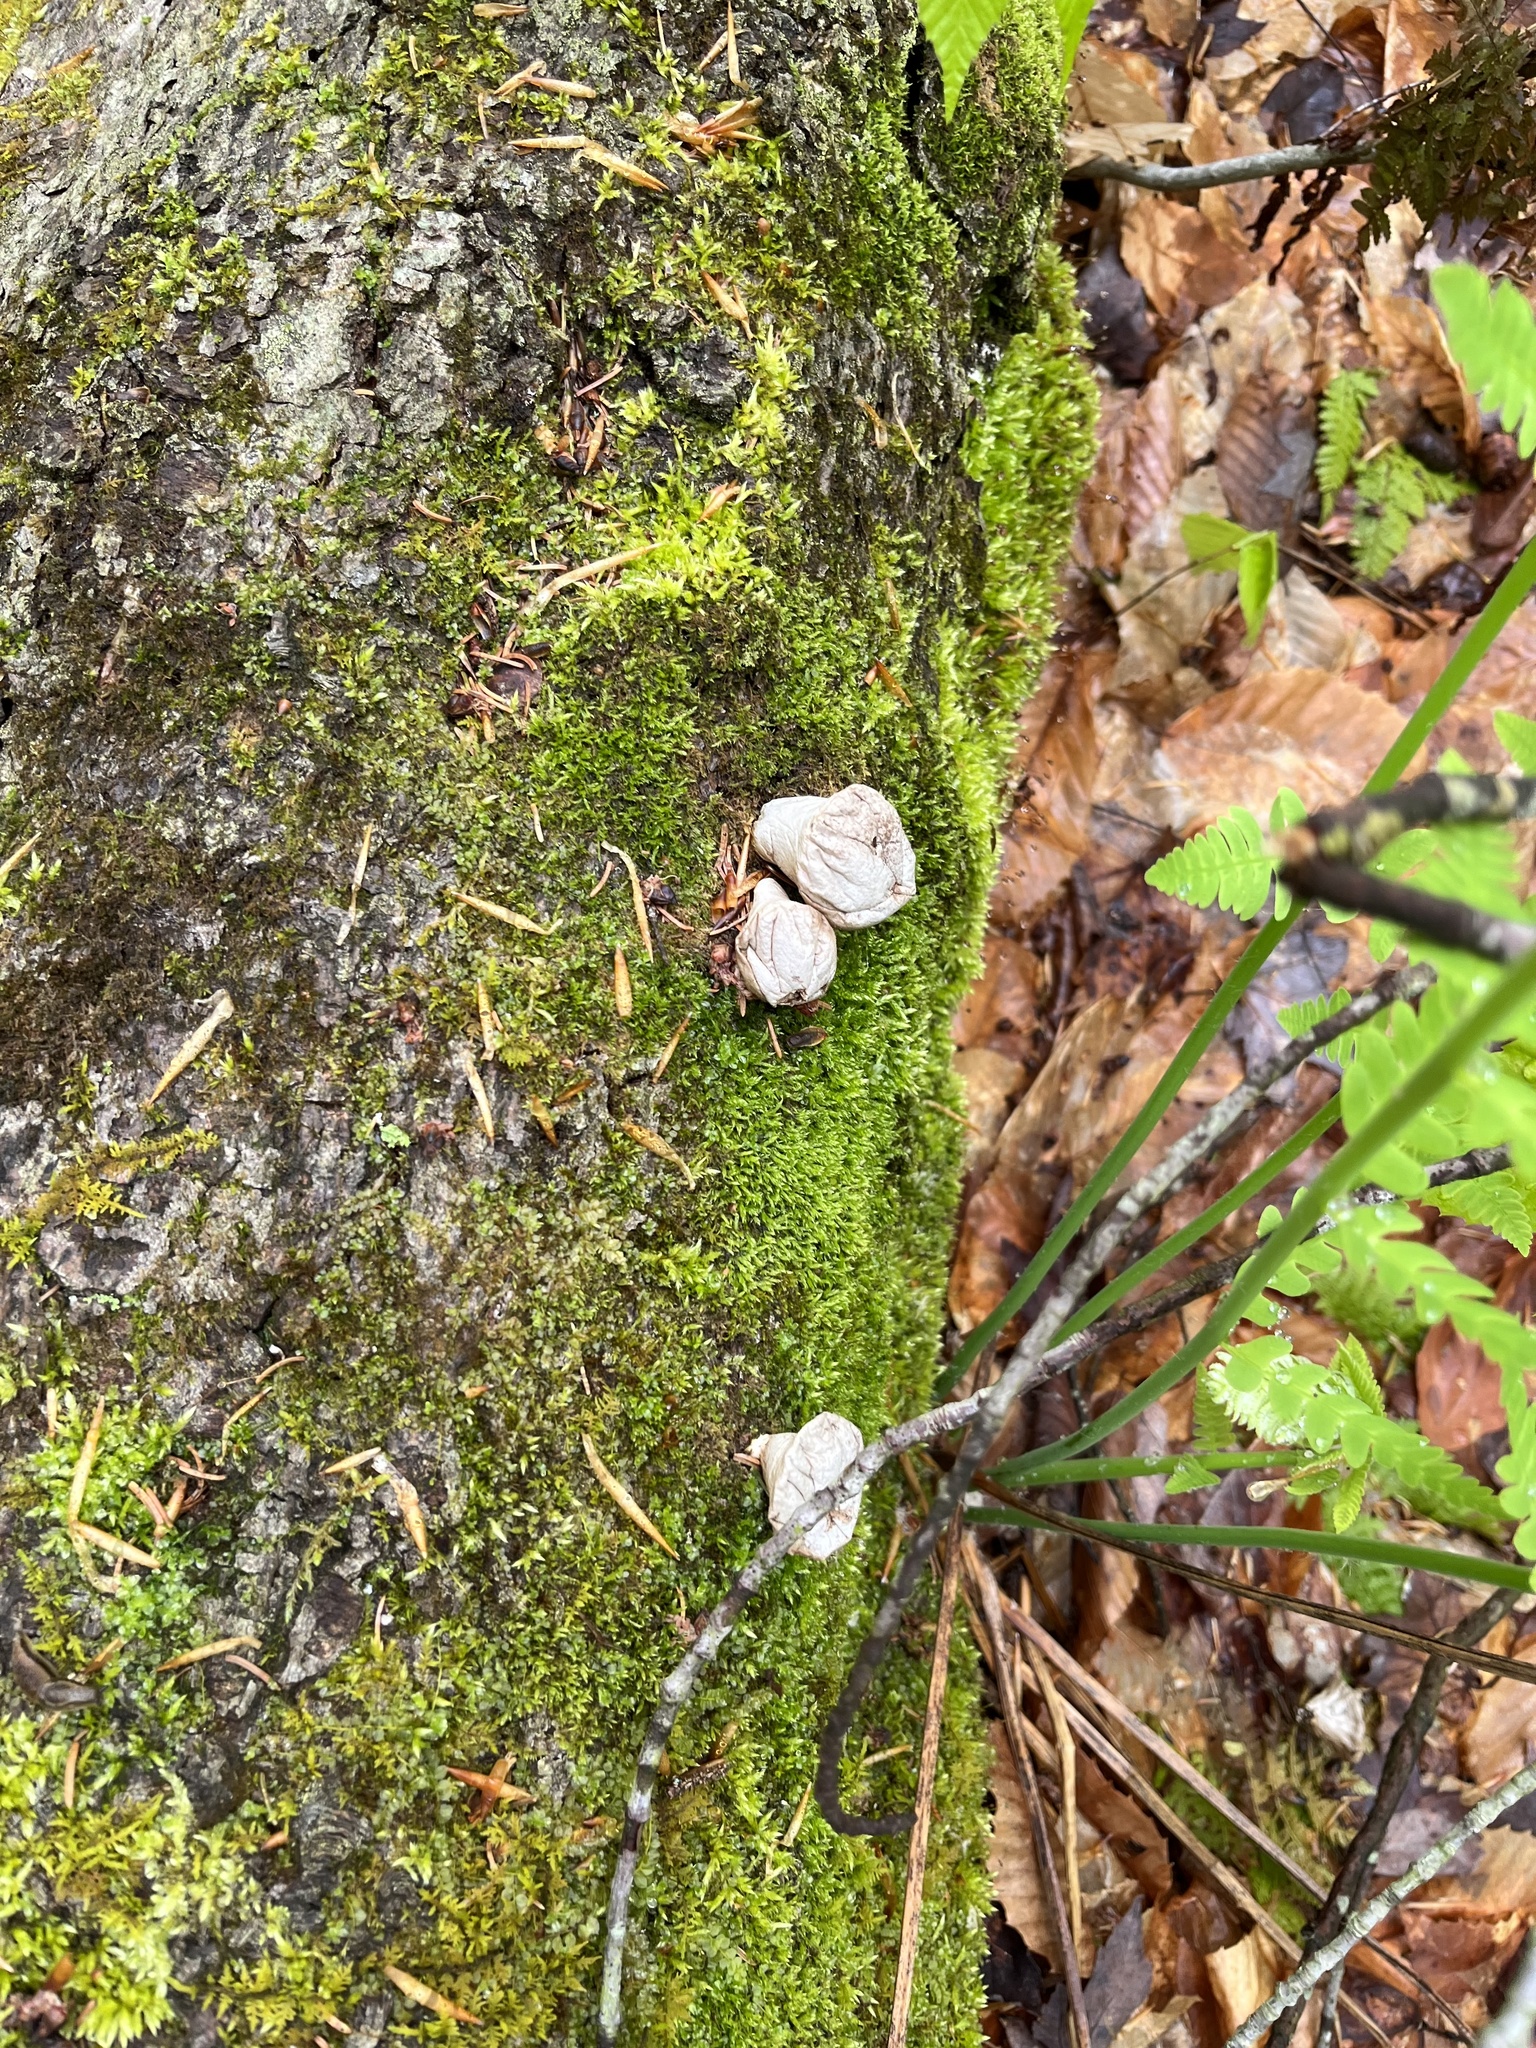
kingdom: Fungi
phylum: Basidiomycota
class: Agaricomycetes
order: Agaricales
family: Lycoperdaceae
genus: Apioperdon
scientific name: Apioperdon pyriforme
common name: Pear-shaped puffball
